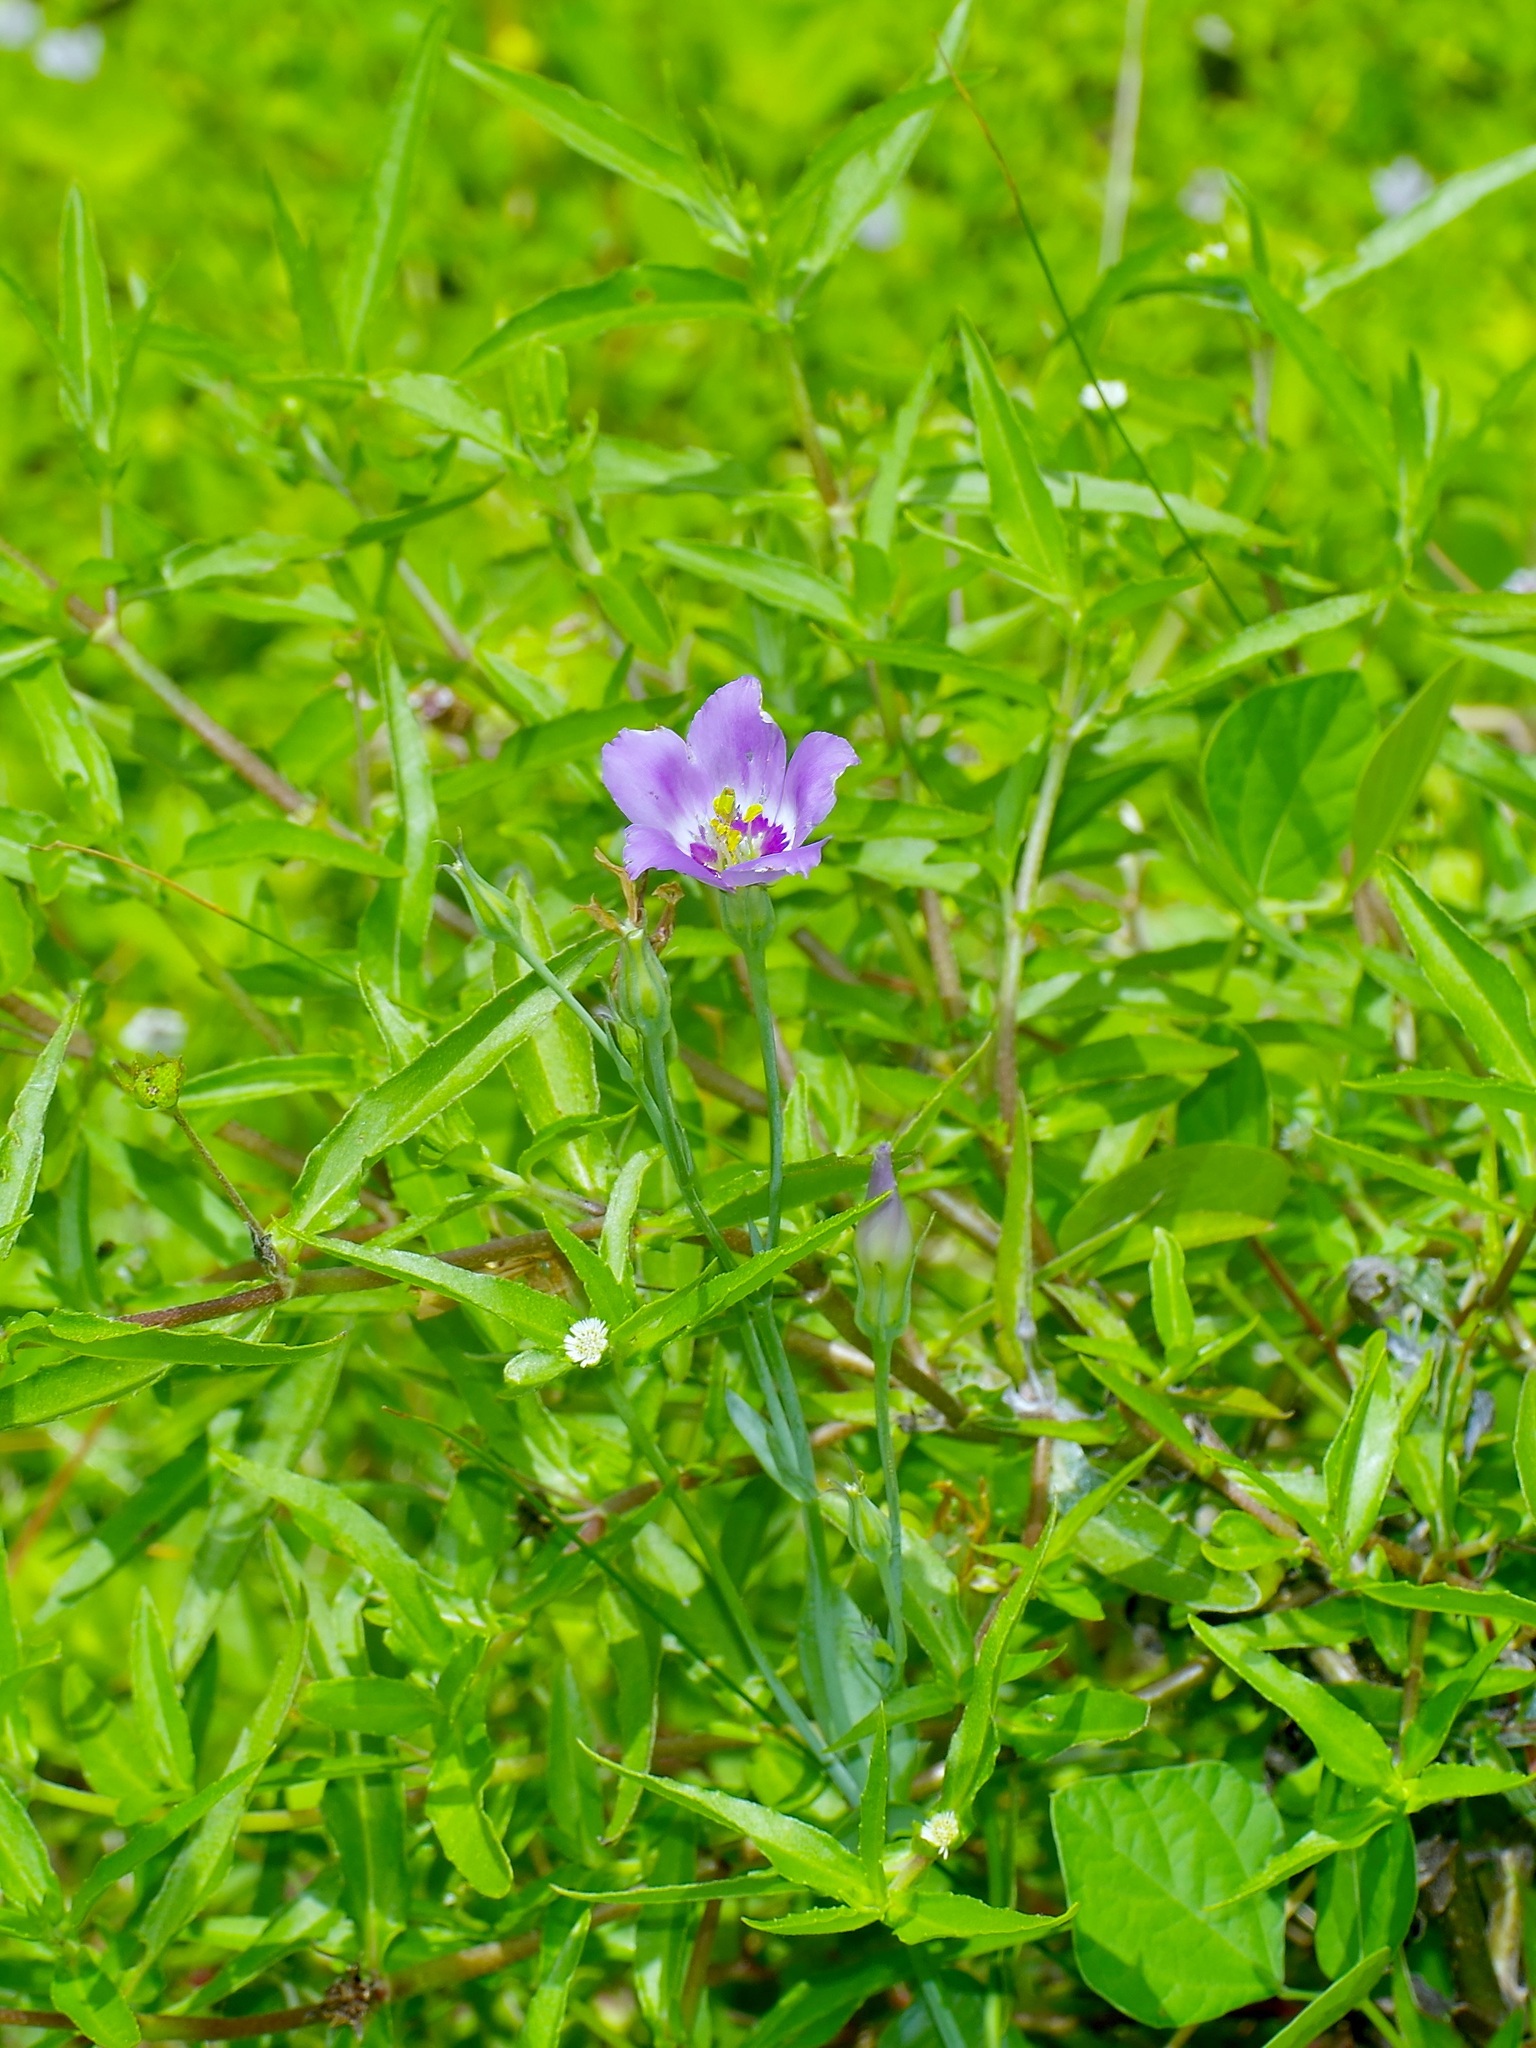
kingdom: Plantae
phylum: Tracheophyta
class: Magnoliopsida
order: Gentianales
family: Gentianaceae
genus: Eustoma
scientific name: Eustoma exaltatum
